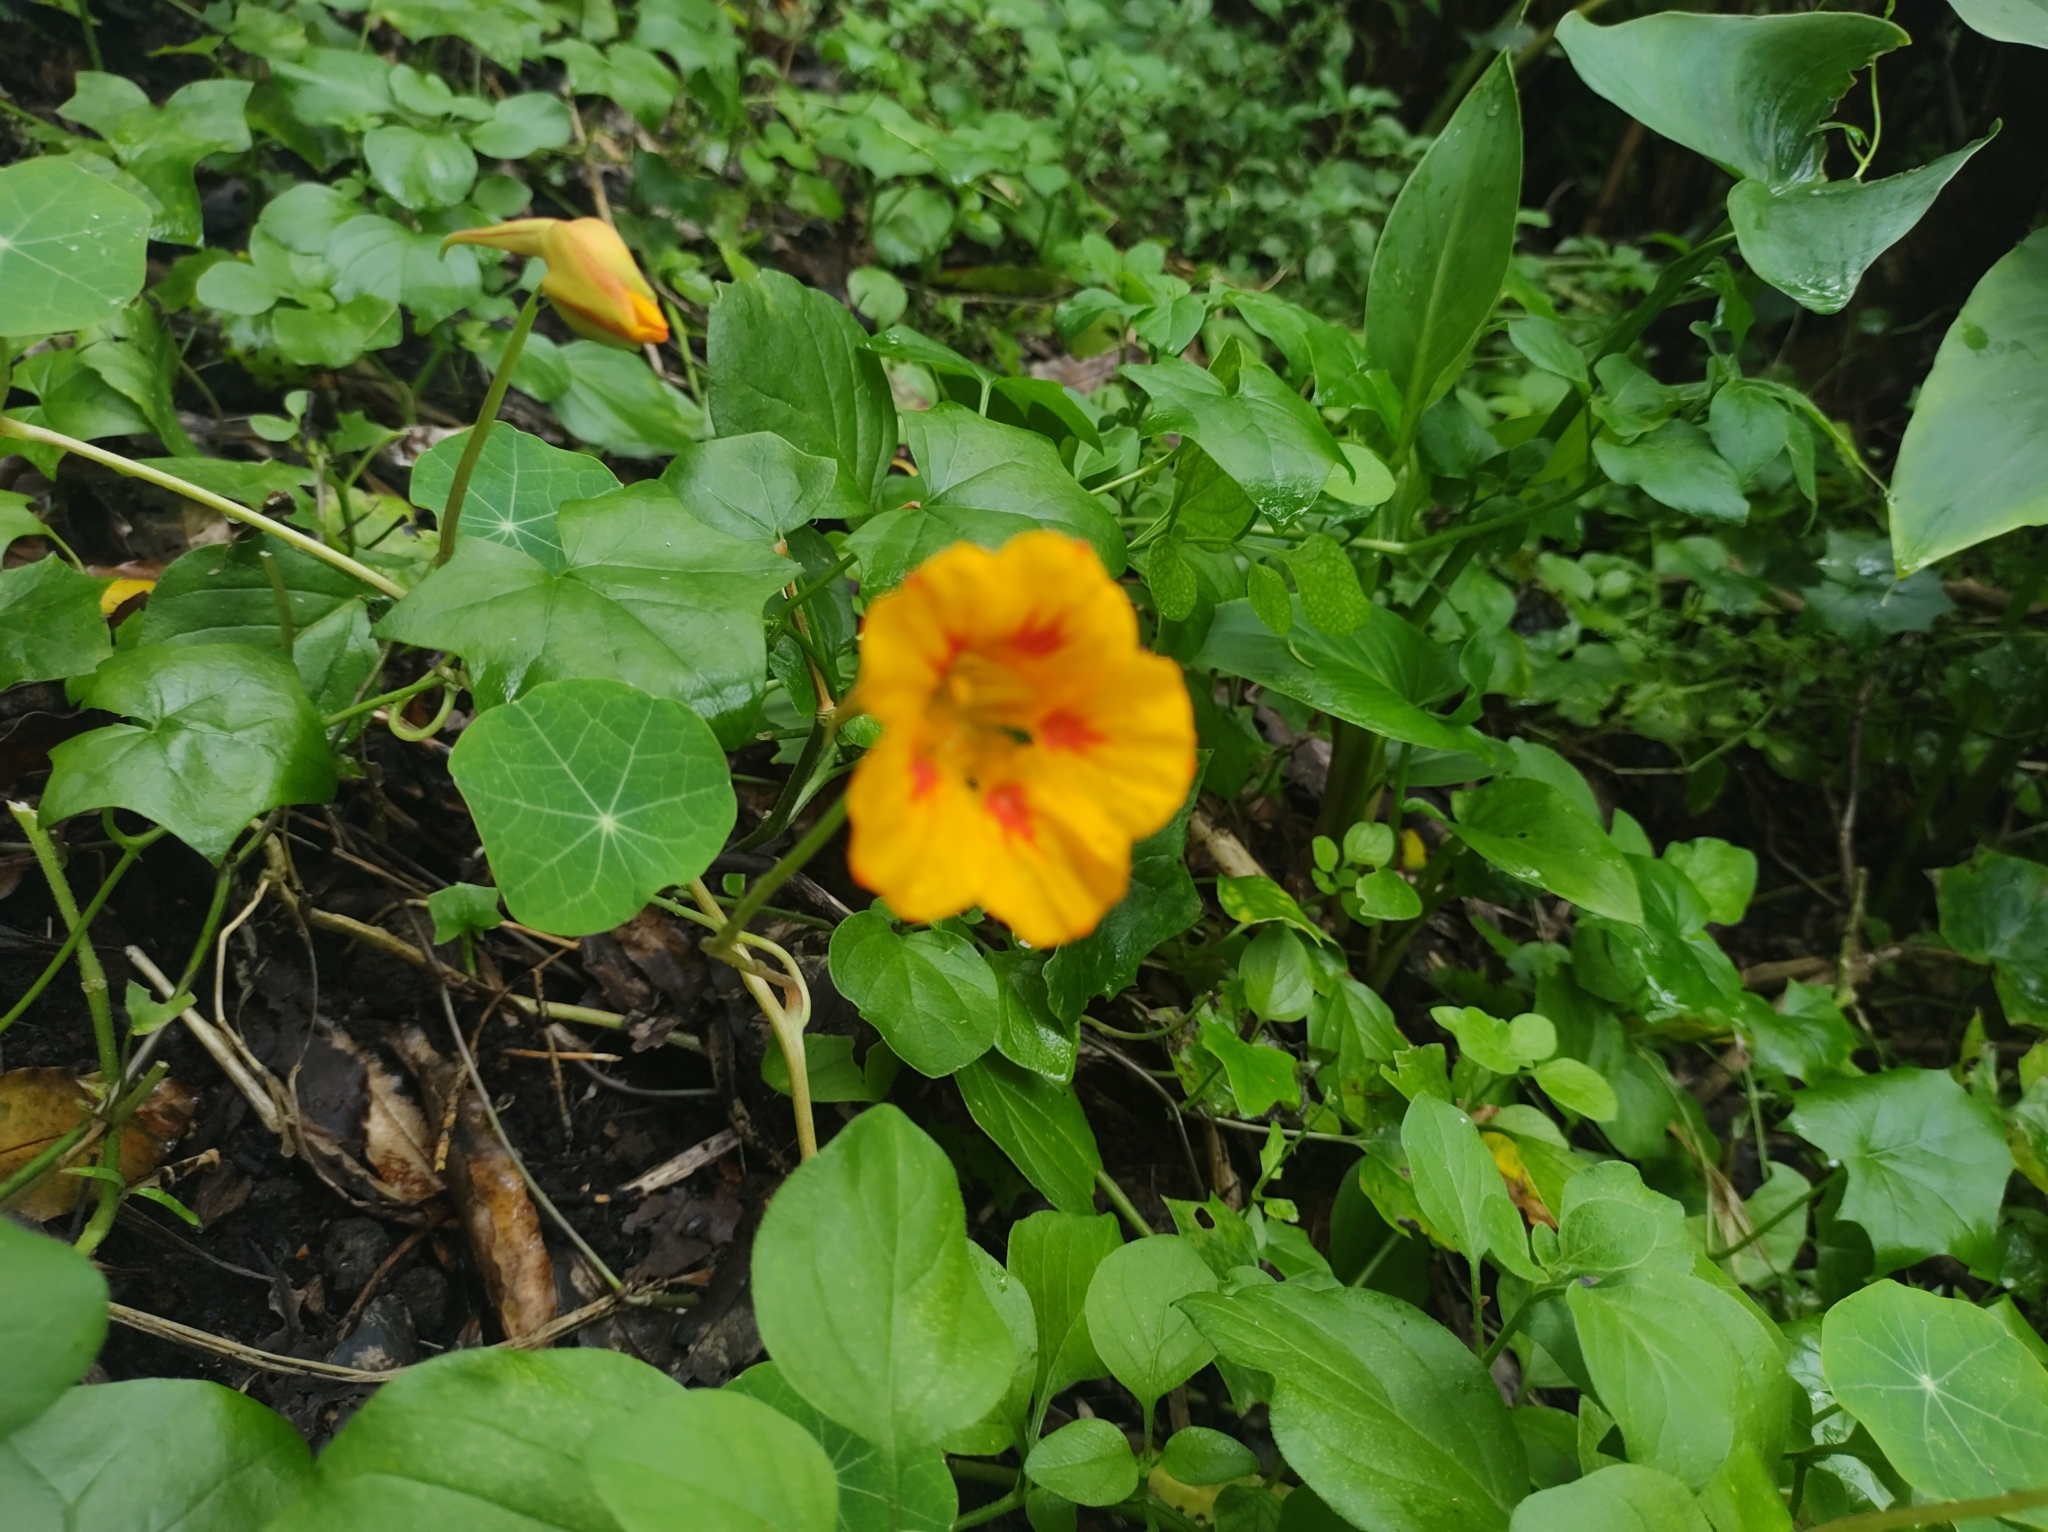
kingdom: Plantae
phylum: Tracheophyta
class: Magnoliopsida
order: Brassicales
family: Tropaeolaceae
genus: Tropaeolum
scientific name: Tropaeolum majus
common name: Nasturtium
